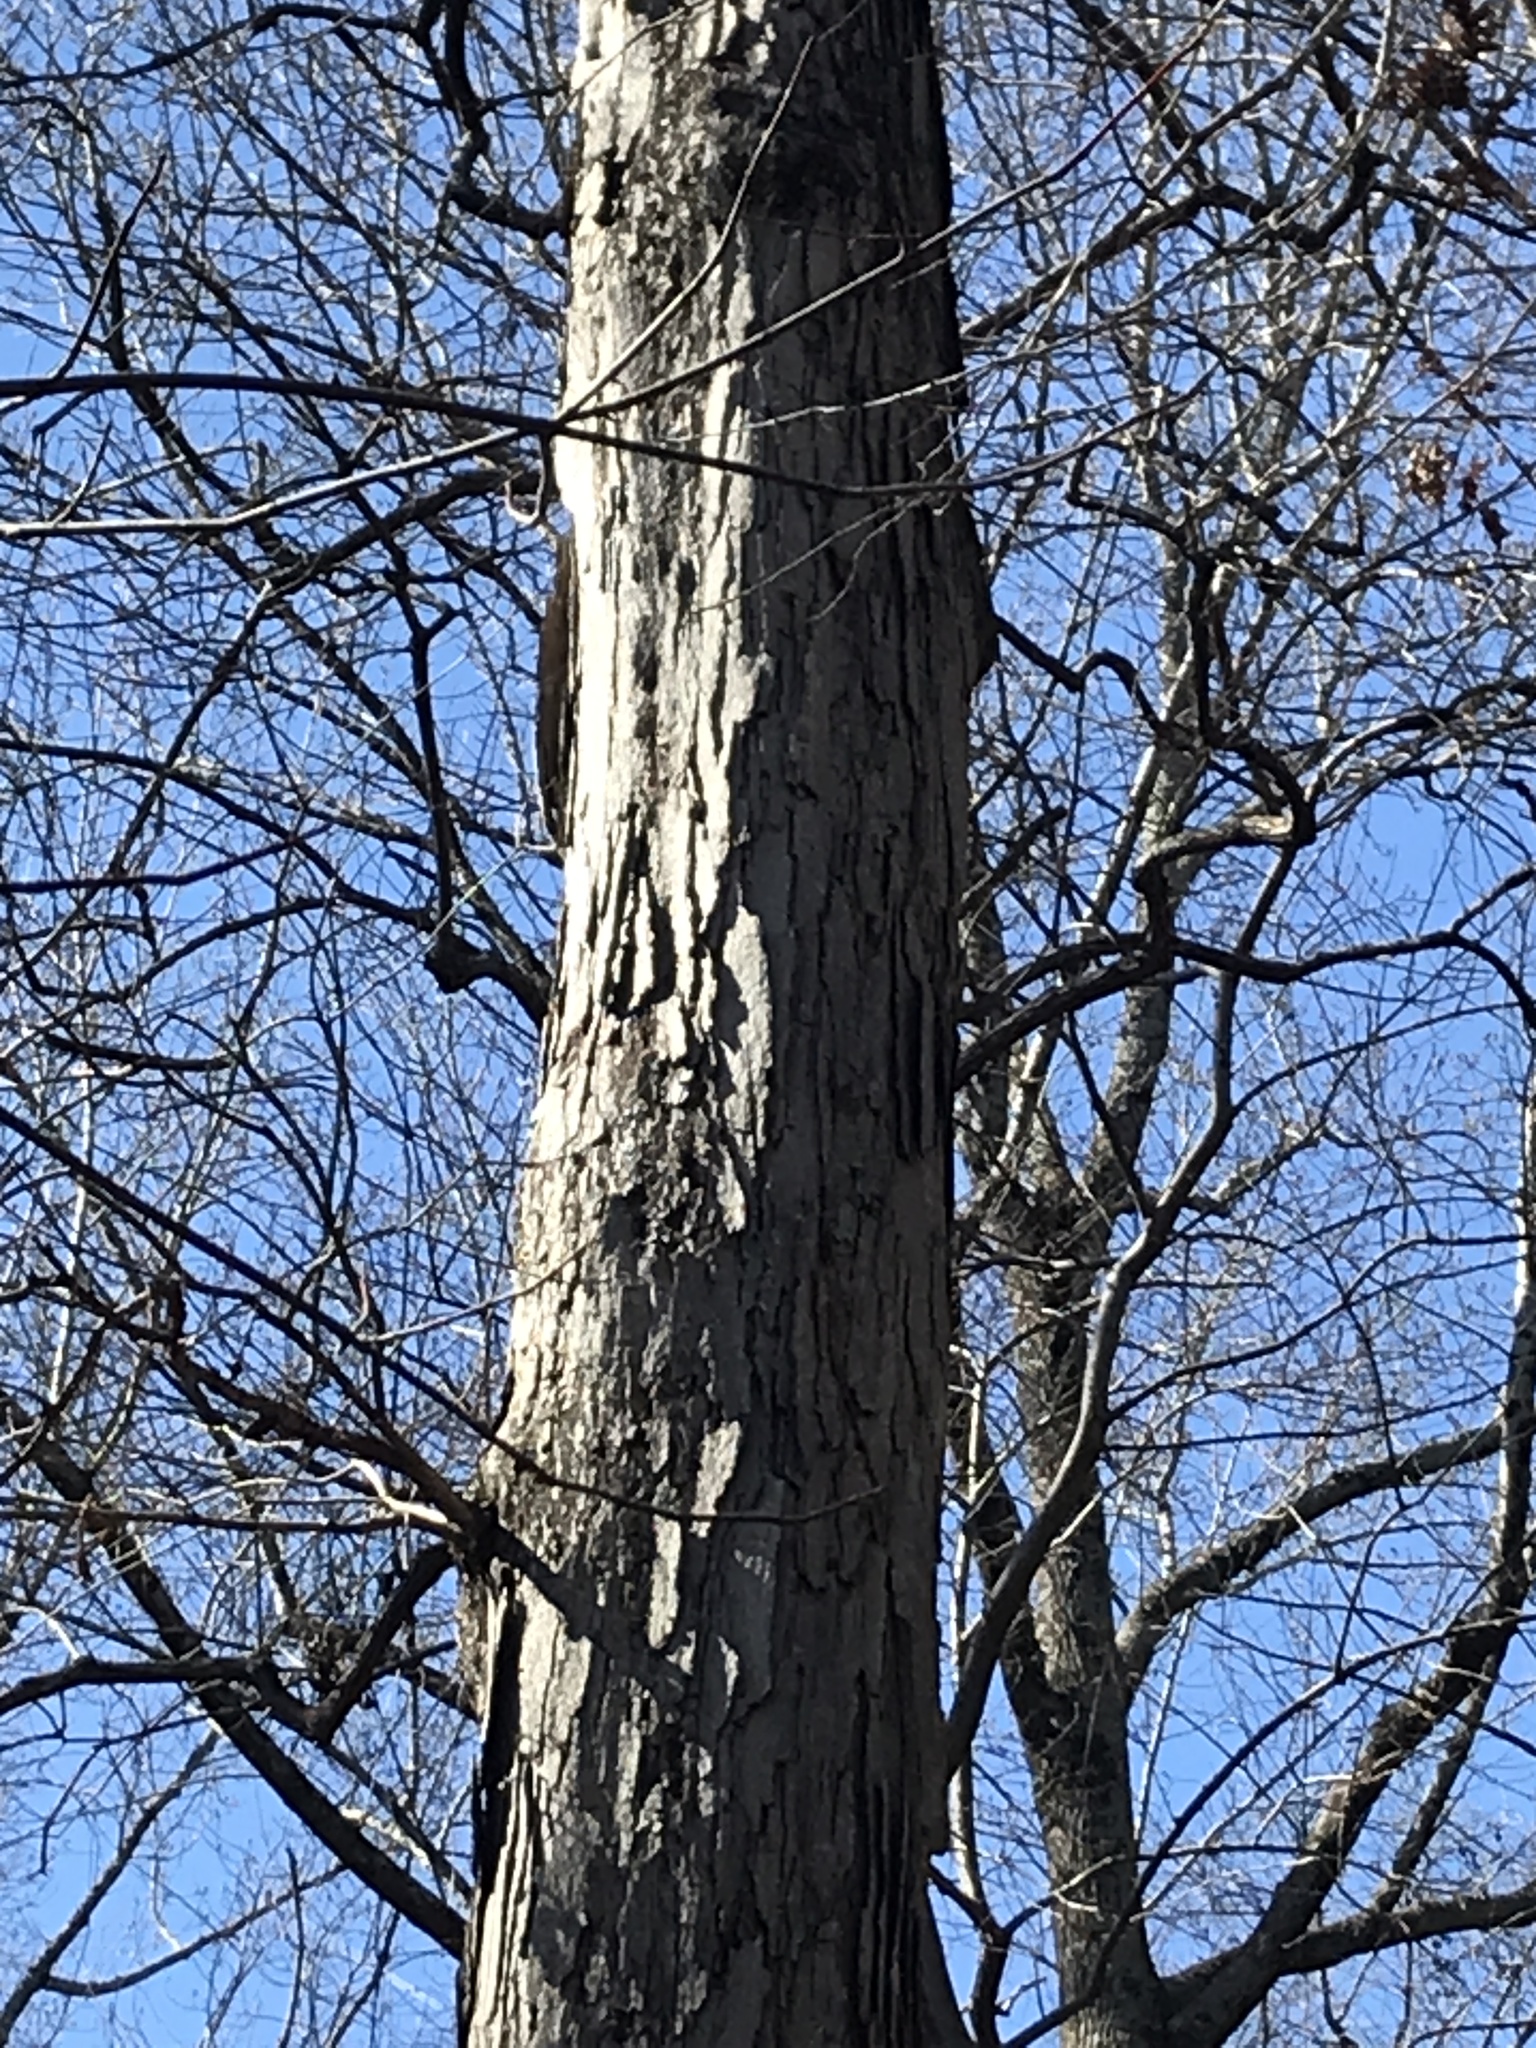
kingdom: Plantae
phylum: Tracheophyta
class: Magnoliopsida
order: Fagales
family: Fagaceae
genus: Quercus
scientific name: Quercus alba
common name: White oak
